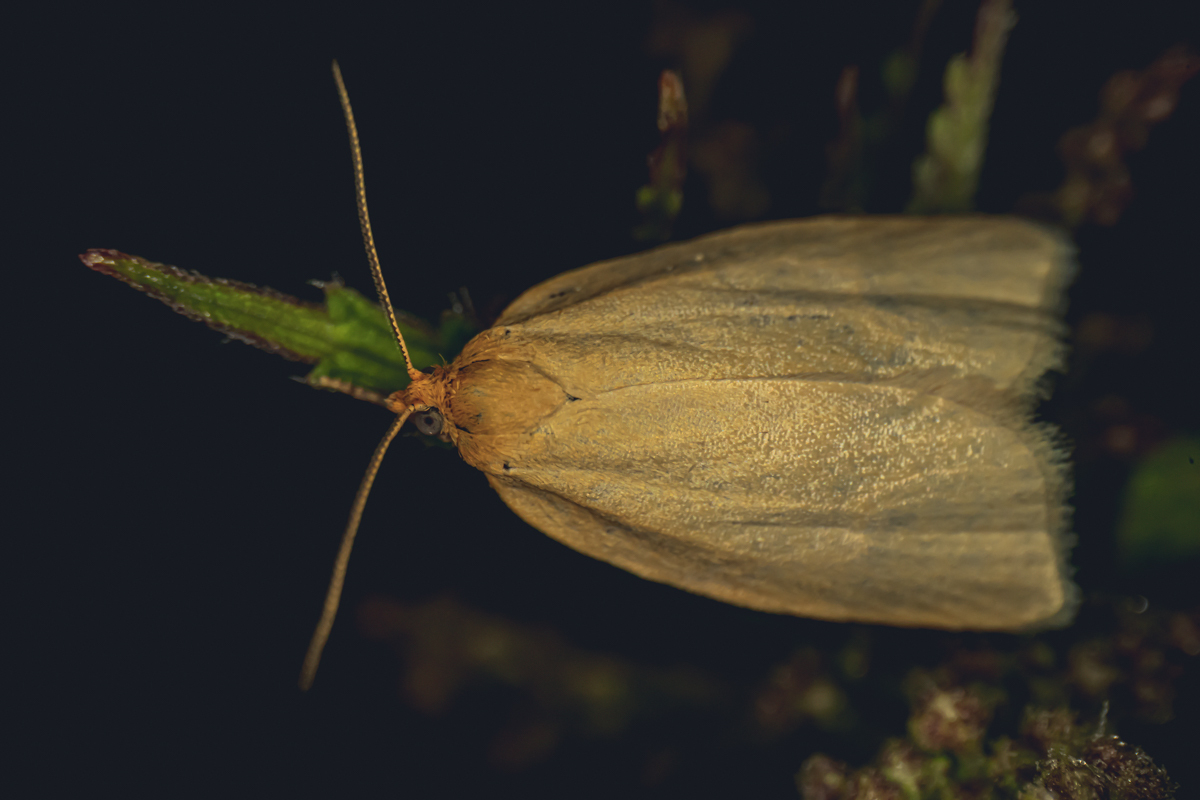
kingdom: Animalia
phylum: Arthropoda
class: Insecta
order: Lepidoptera
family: Tortricidae
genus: Aphelia
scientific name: Aphelia Zelotherses paleana
